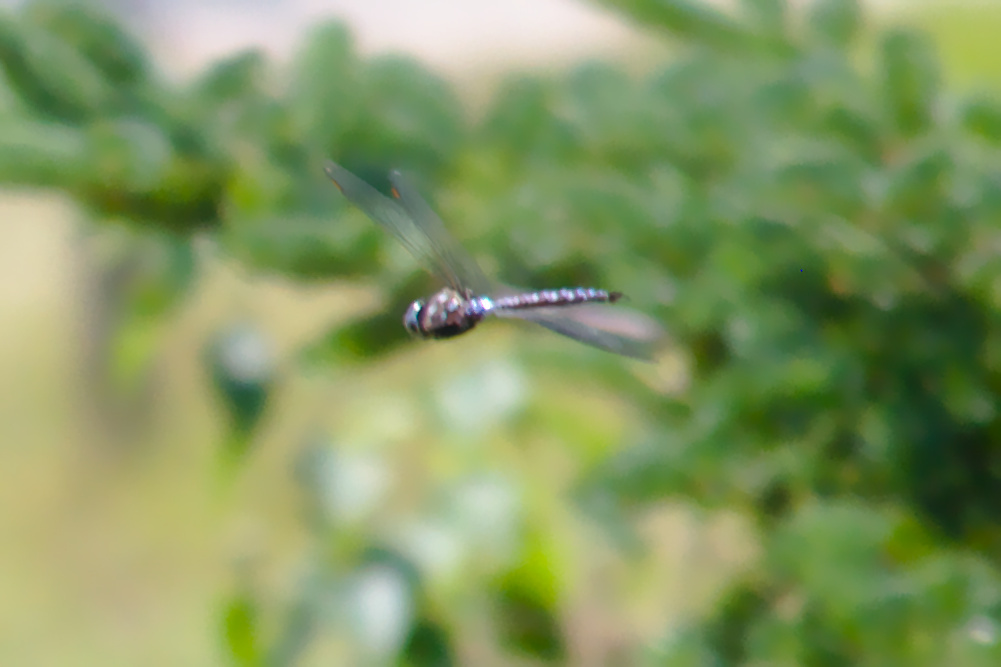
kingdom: Animalia
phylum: Arthropoda
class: Insecta
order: Odonata
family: Aeshnidae
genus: Aeshna
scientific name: Aeshna
